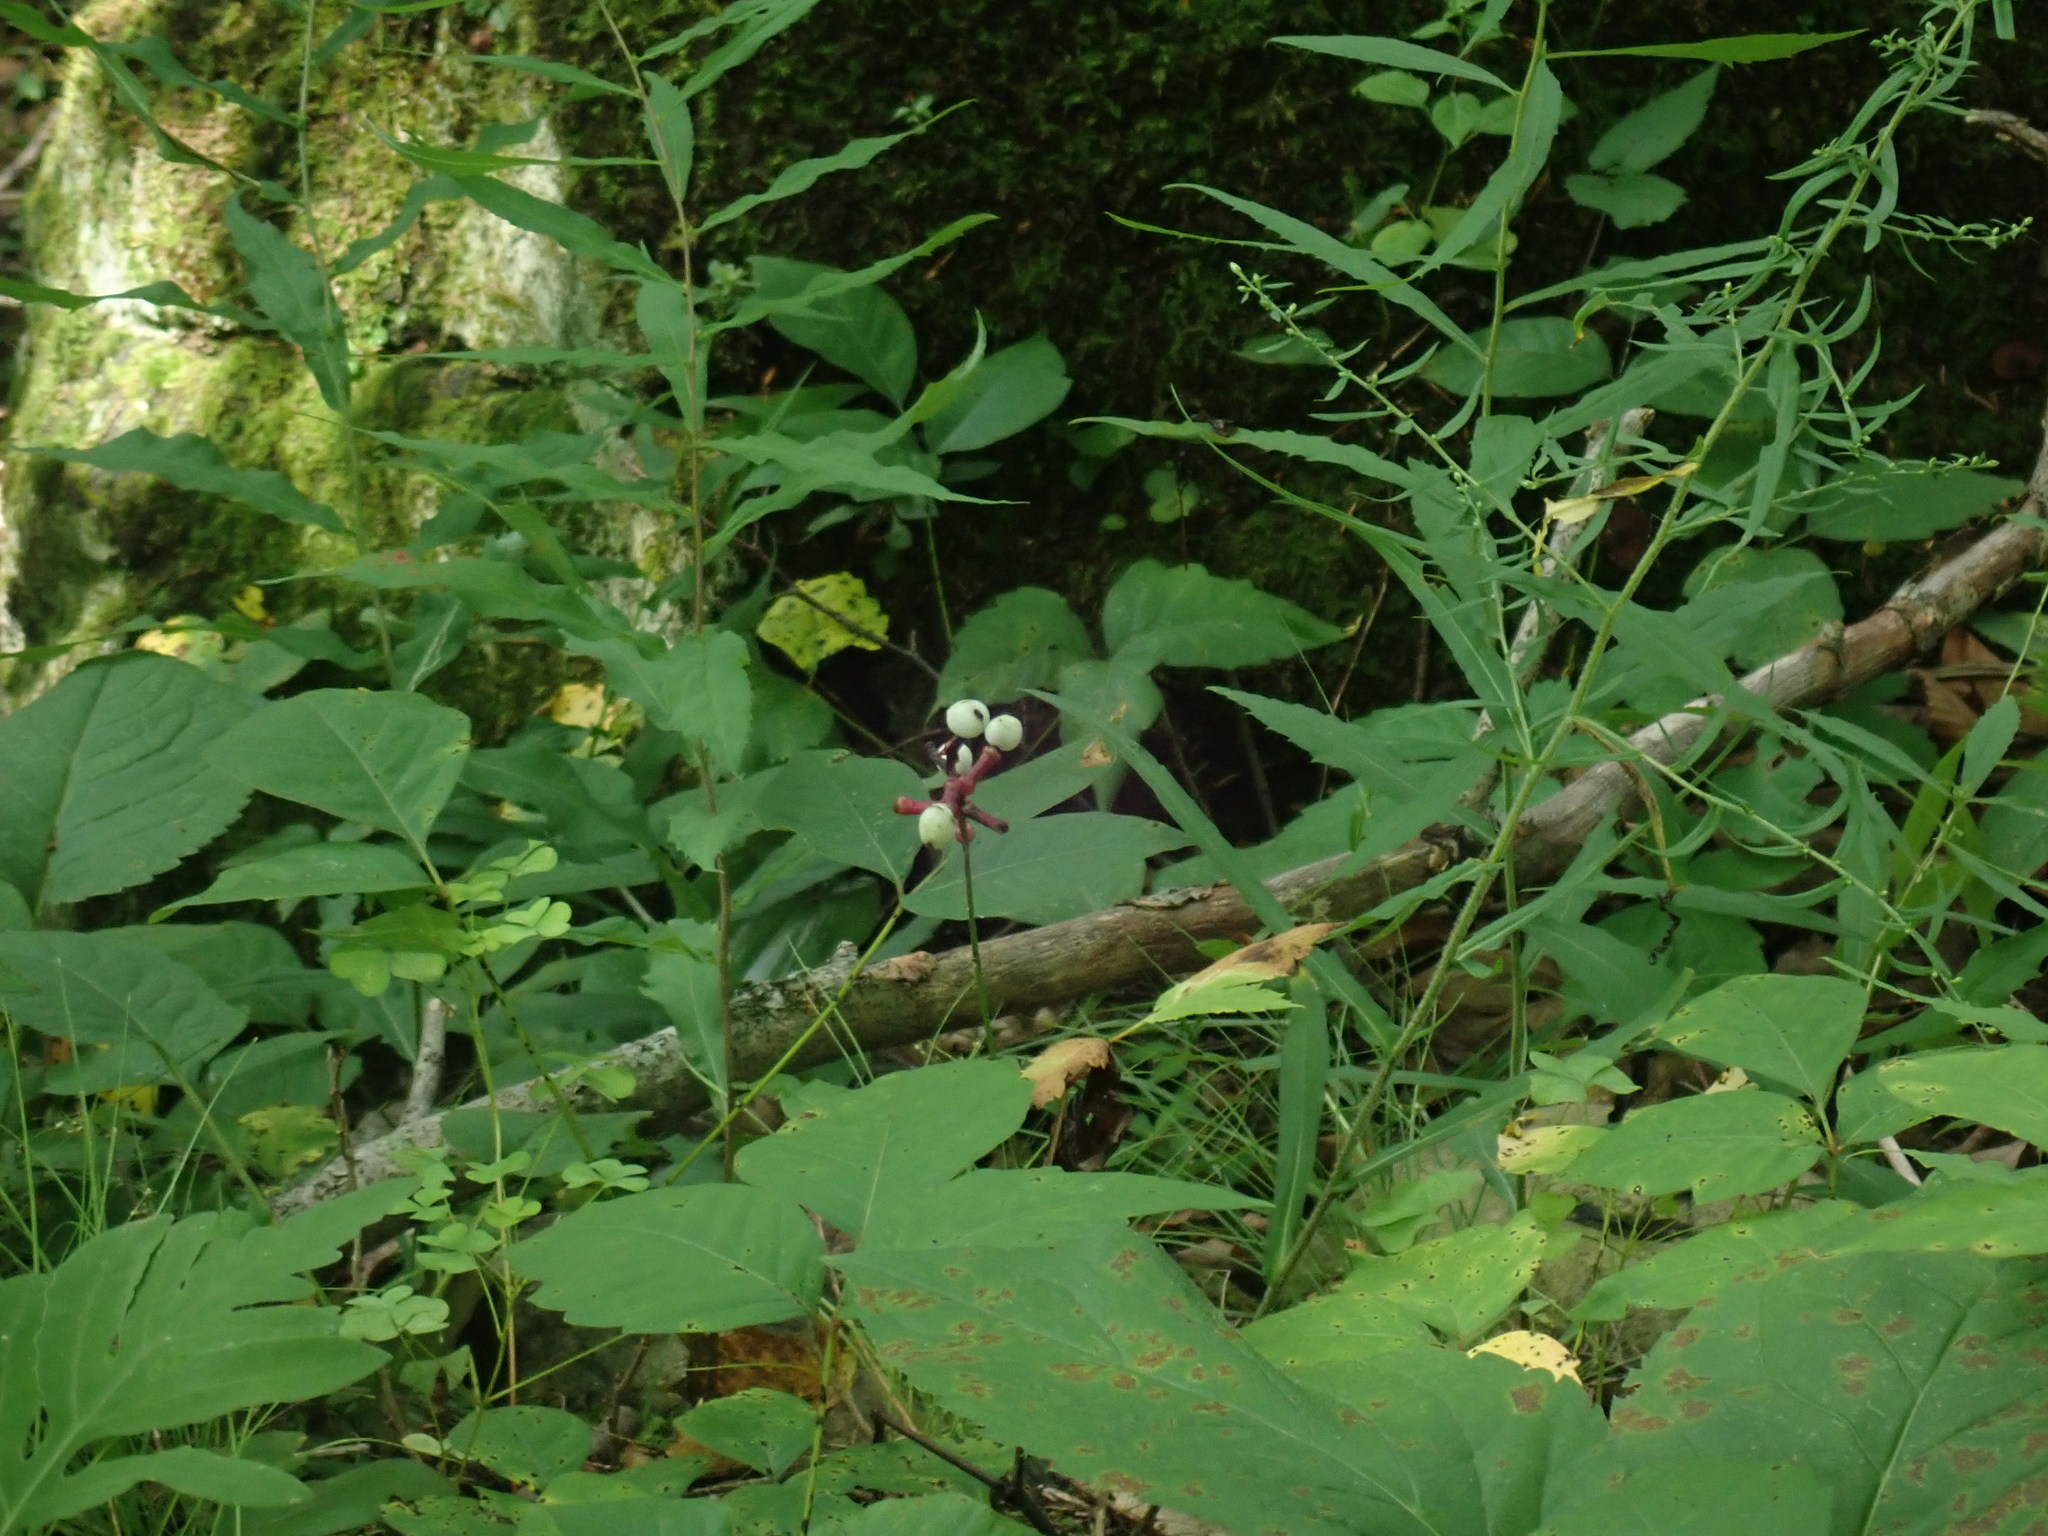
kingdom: Plantae
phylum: Tracheophyta
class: Magnoliopsida
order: Ranunculales
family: Ranunculaceae
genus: Actaea
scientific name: Actaea pachypoda
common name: Doll's-eyes
